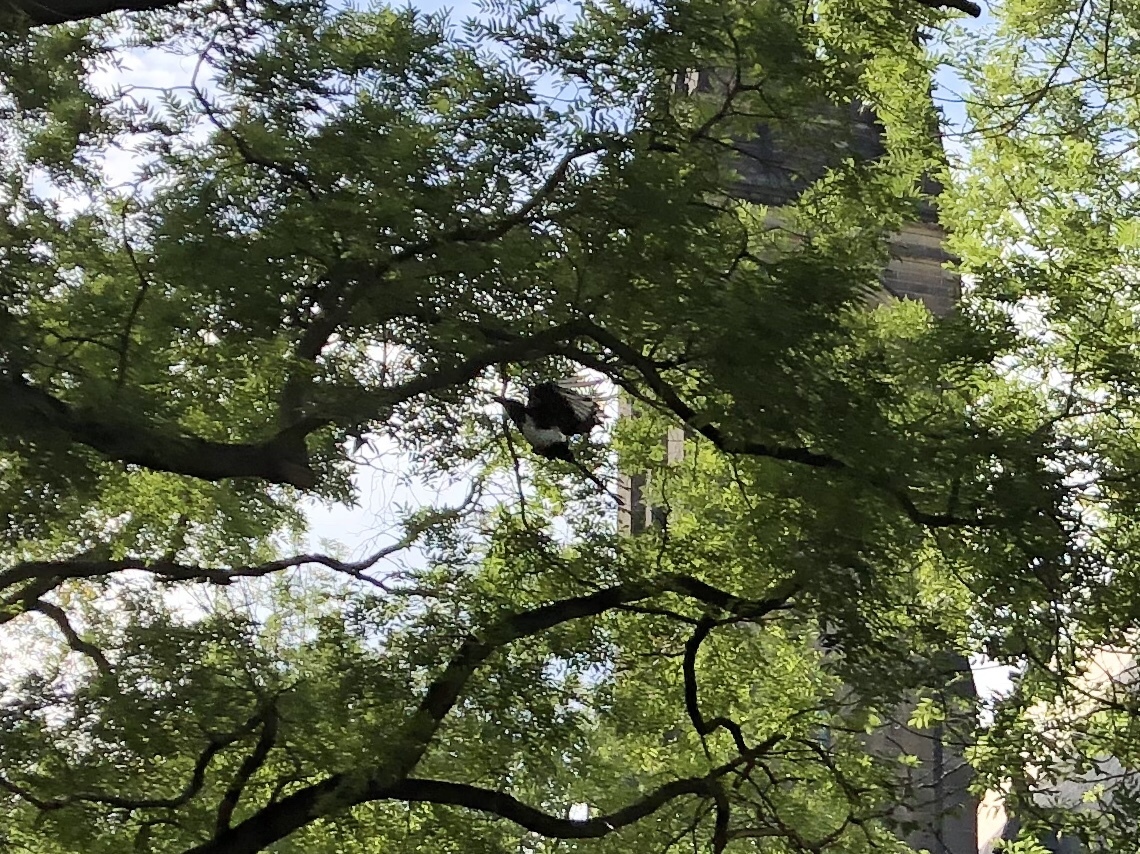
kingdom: Animalia
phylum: Chordata
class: Aves
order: Passeriformes
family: Corvidae
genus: Pica
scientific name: Pica pica
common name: Eurasian magpie
